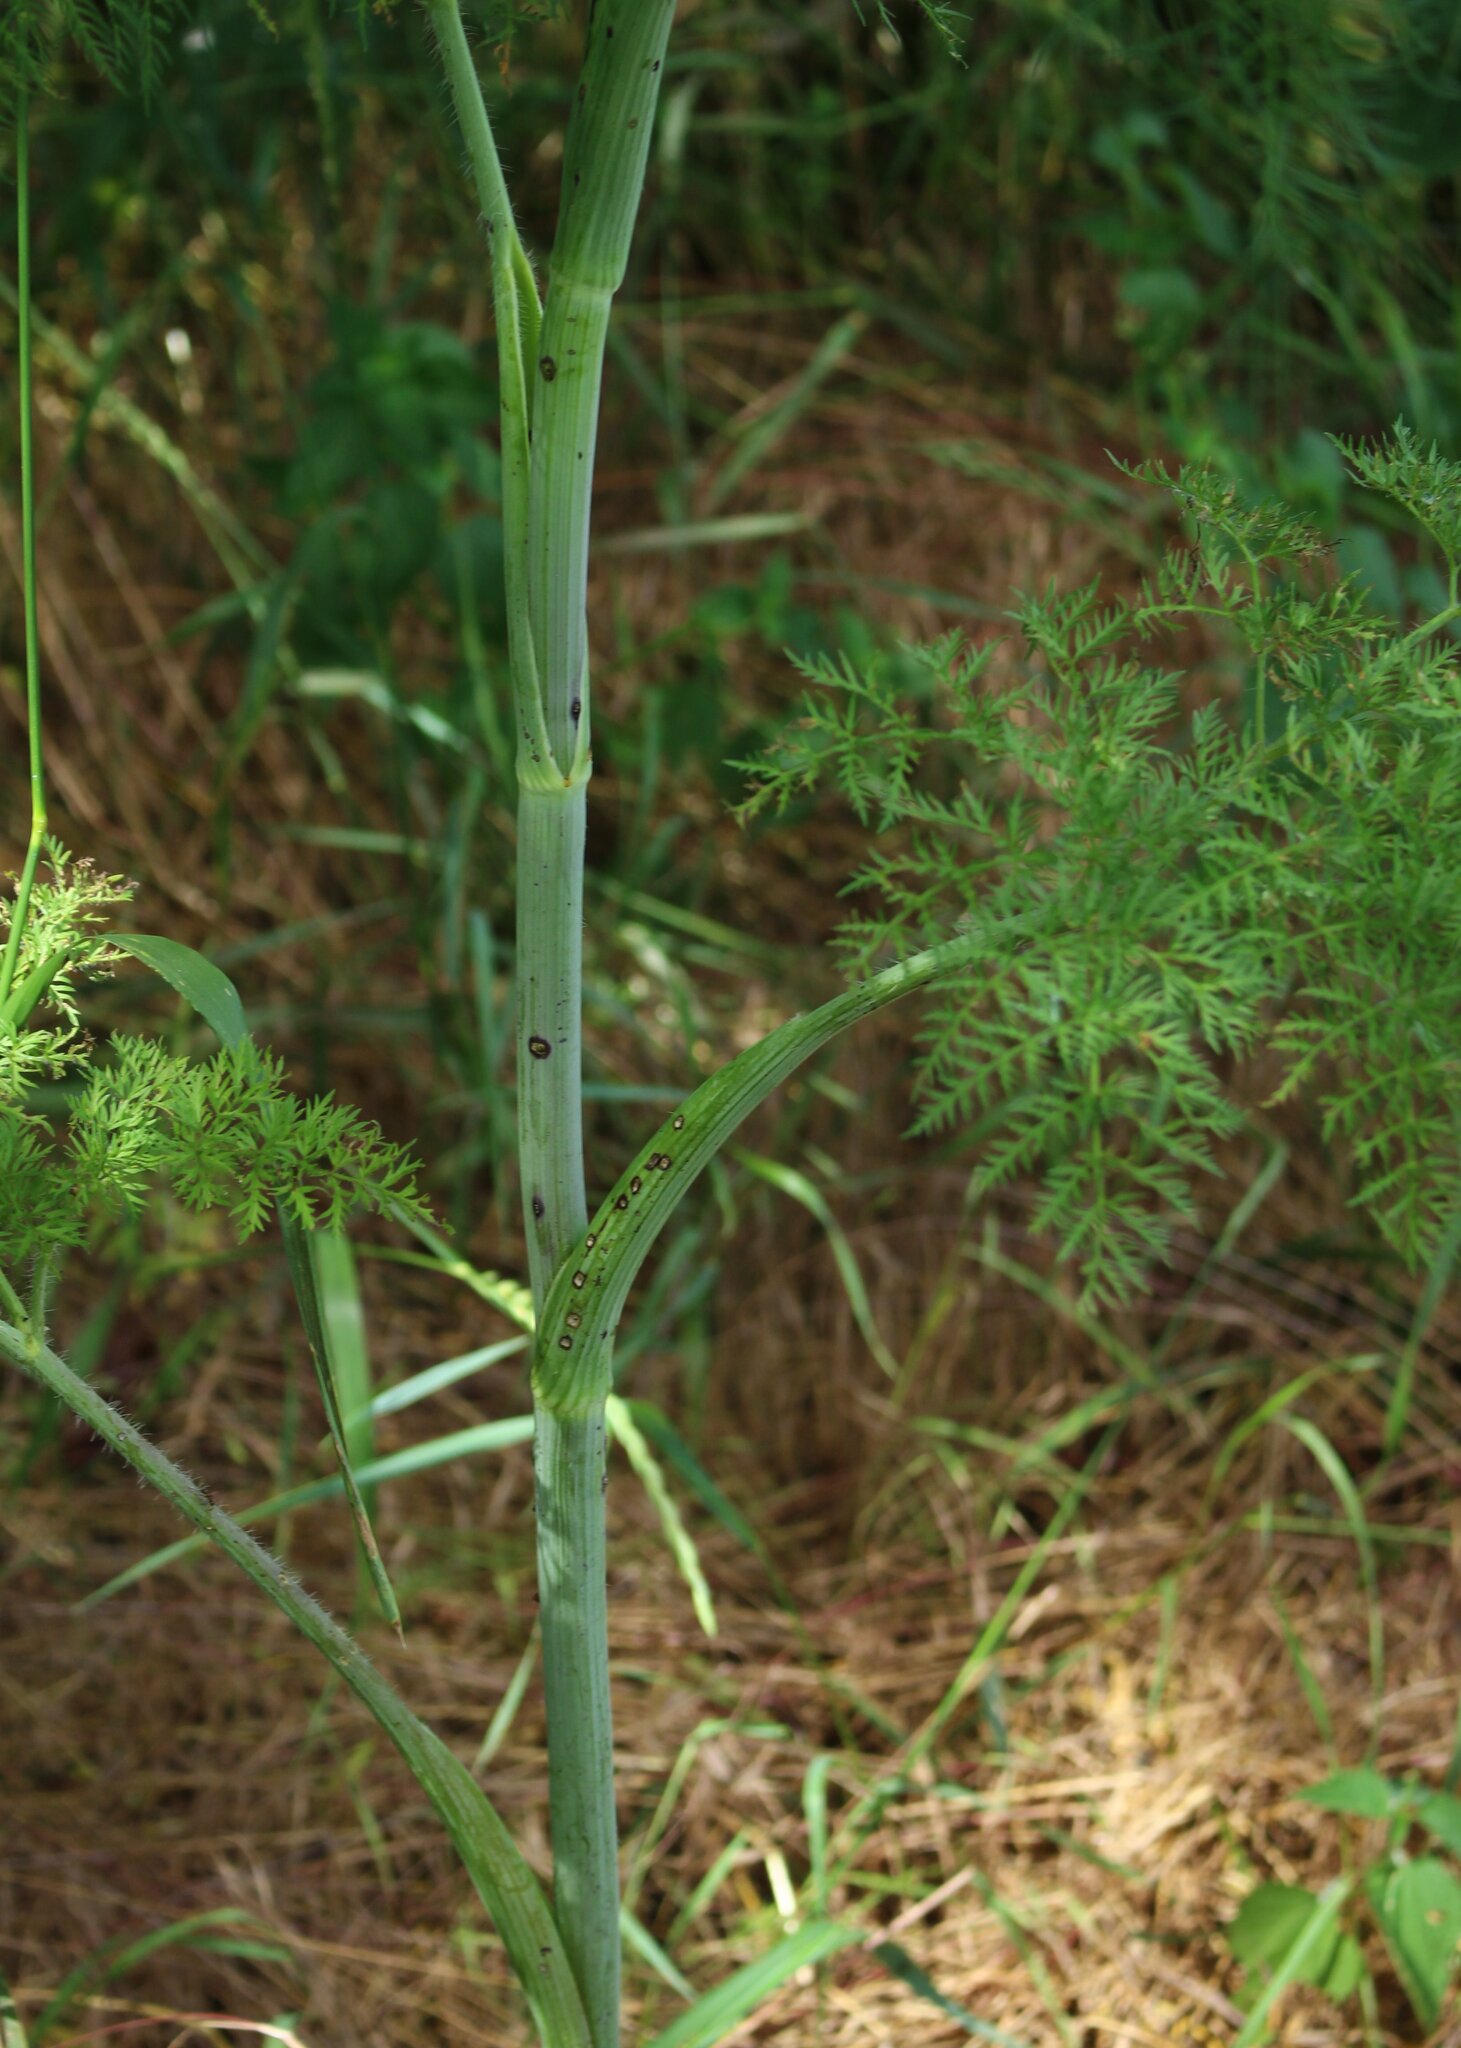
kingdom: Plantae
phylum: Tracheophyta
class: Magnoliopsida
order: Apiales
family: Apiaceae
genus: Conium
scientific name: Conium maculatum
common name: Hemlock
